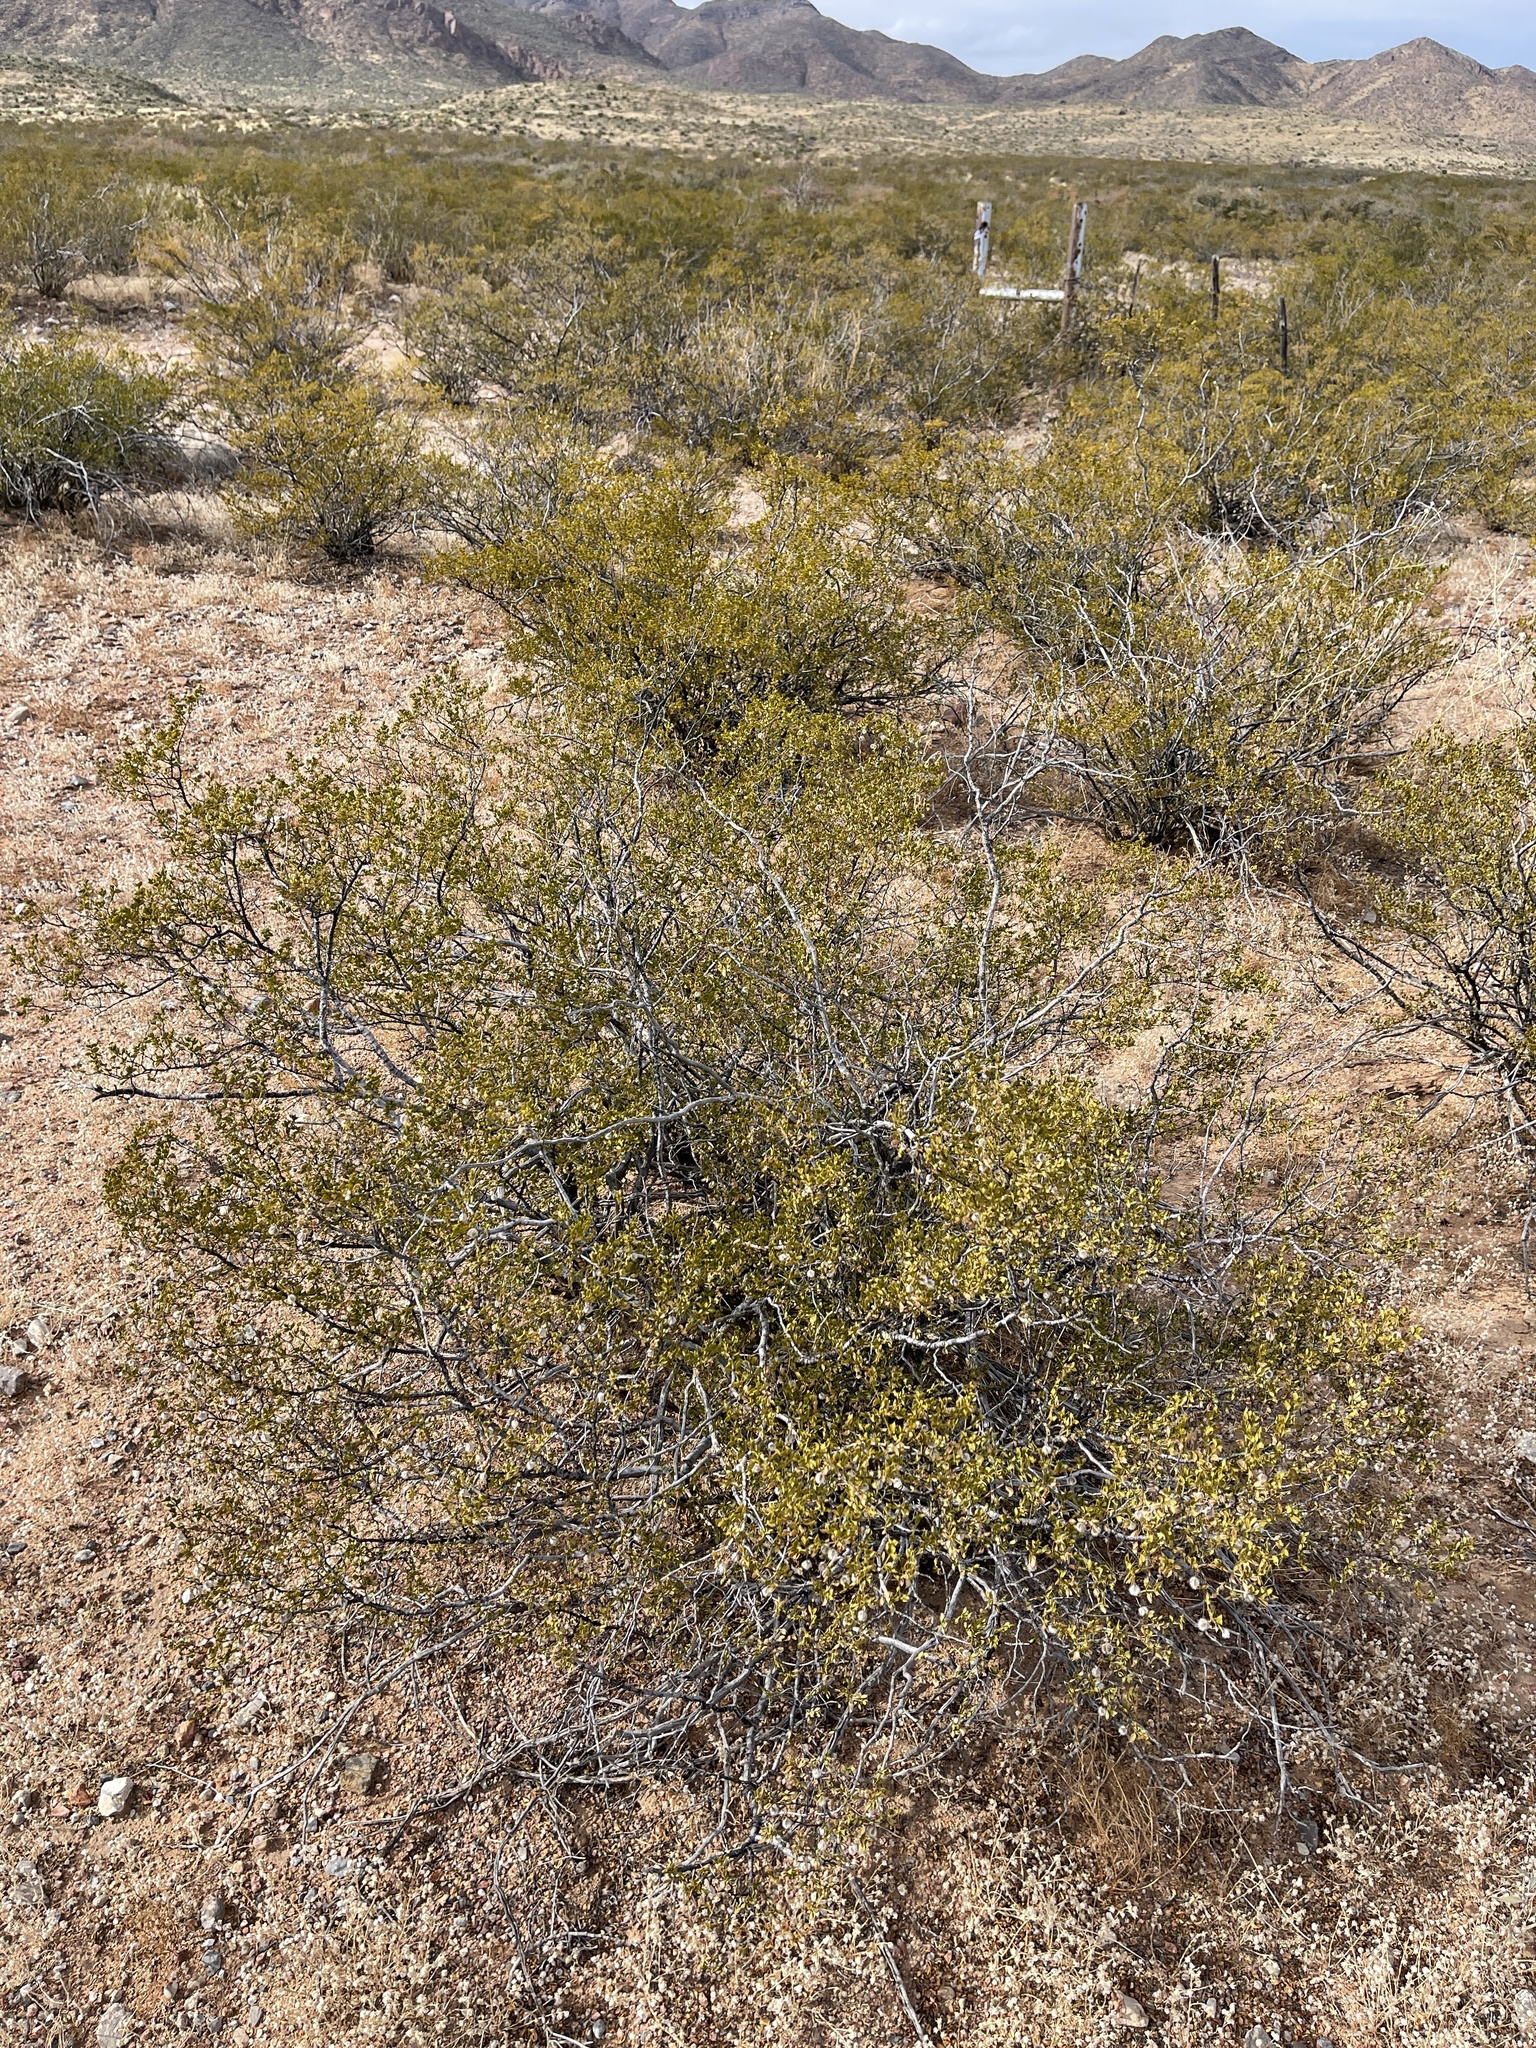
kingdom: Plantae
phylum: Tracheophyta
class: Magnoliopsida
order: Zygophyllales
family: Zygophyllaceae
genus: Larrea
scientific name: Larrea tridentata
